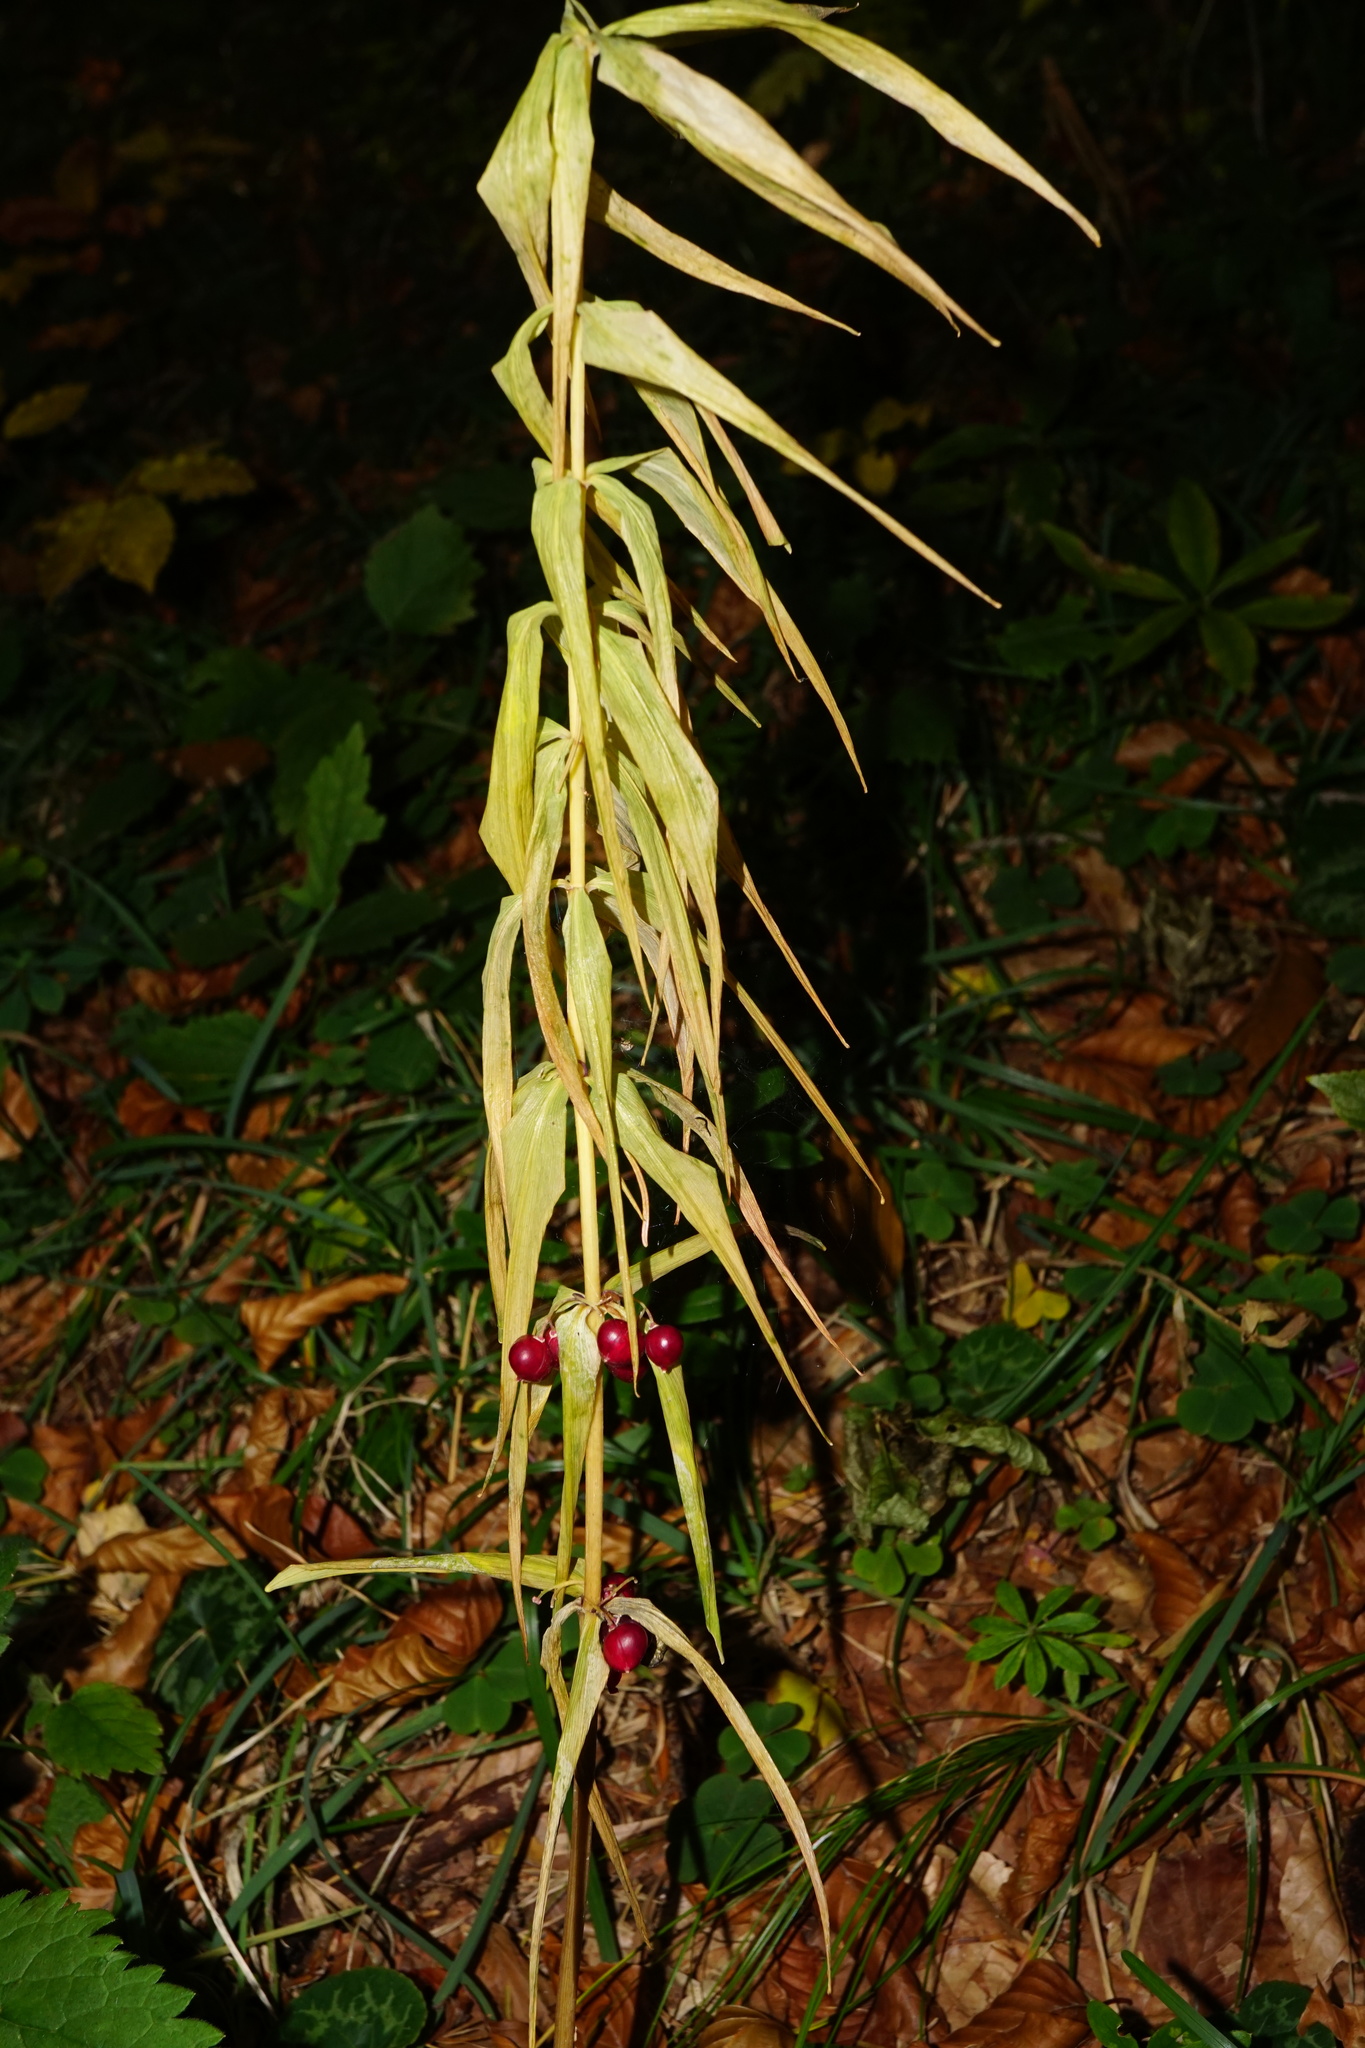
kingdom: Plantae
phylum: Tracheophyta
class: Liliopsida
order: Asparagales
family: Asparagaceae
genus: Polygonatum
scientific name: Polygonatum verticillatum
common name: Whorled solomon's-seal
